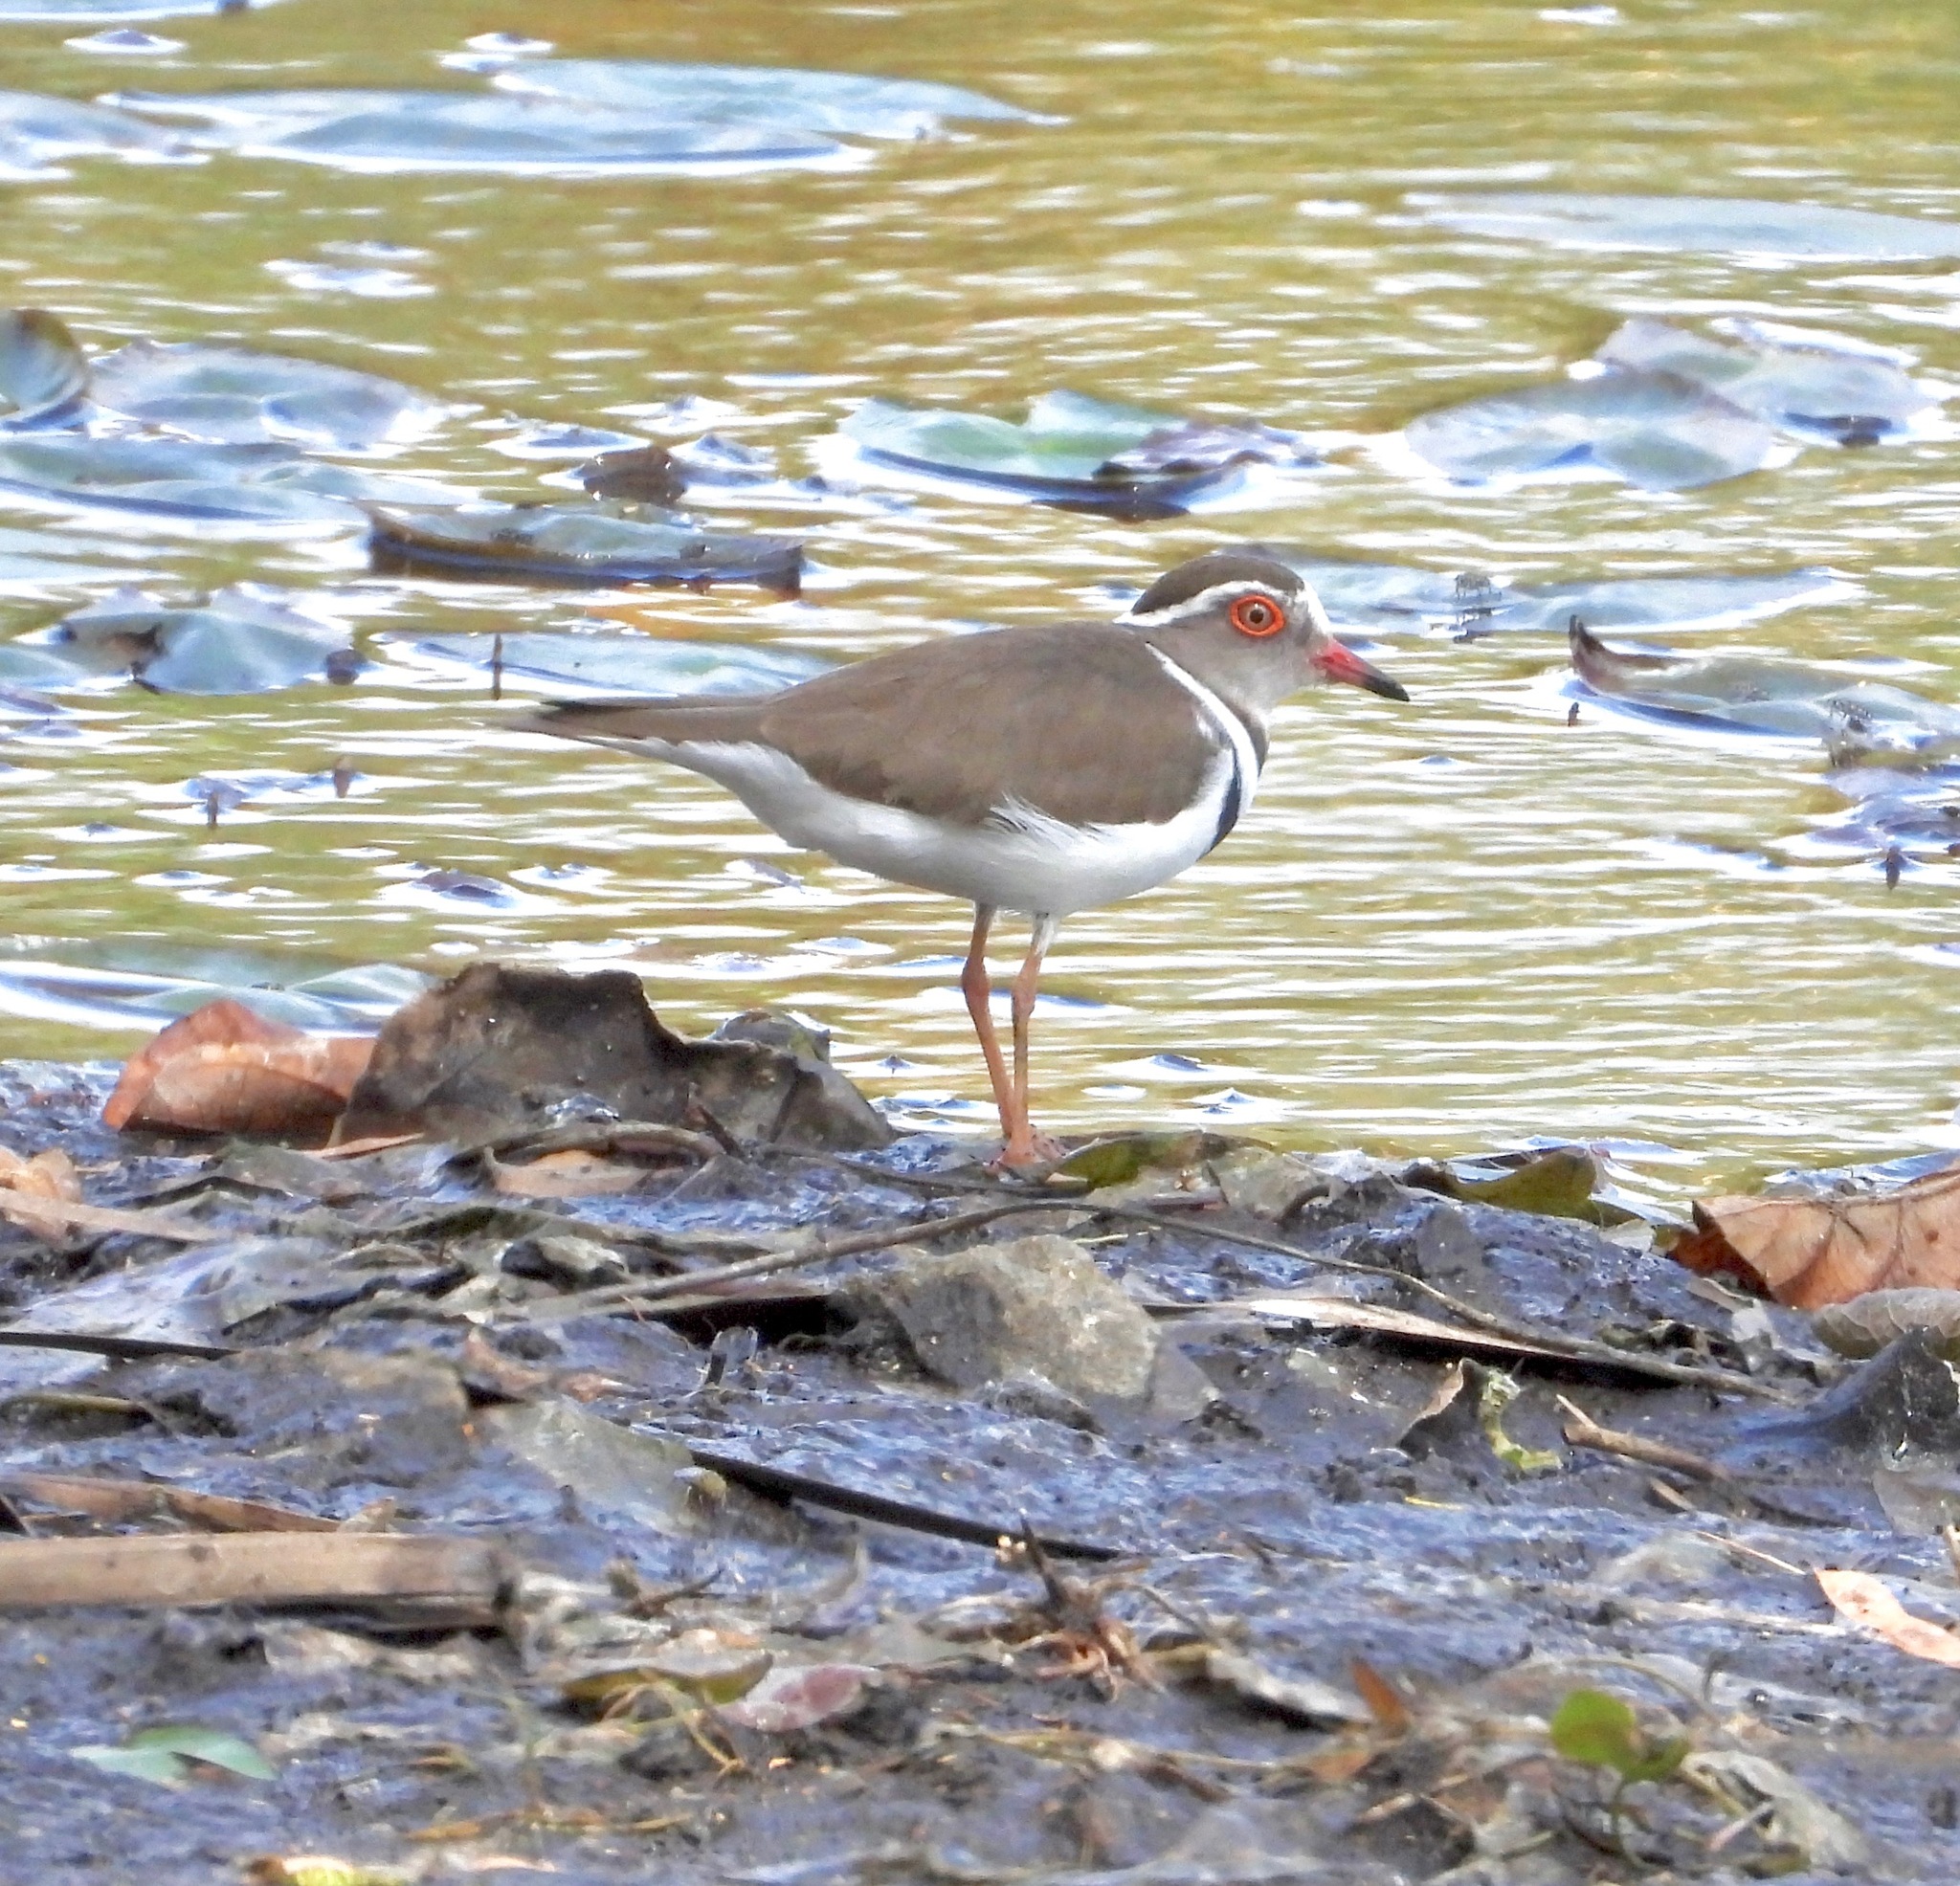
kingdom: Animalia
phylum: Chordata
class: Aves
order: Charadriiformes
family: Charadriidae
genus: Charadrius
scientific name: Charadrius tricollaris
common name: Three-banded plover
